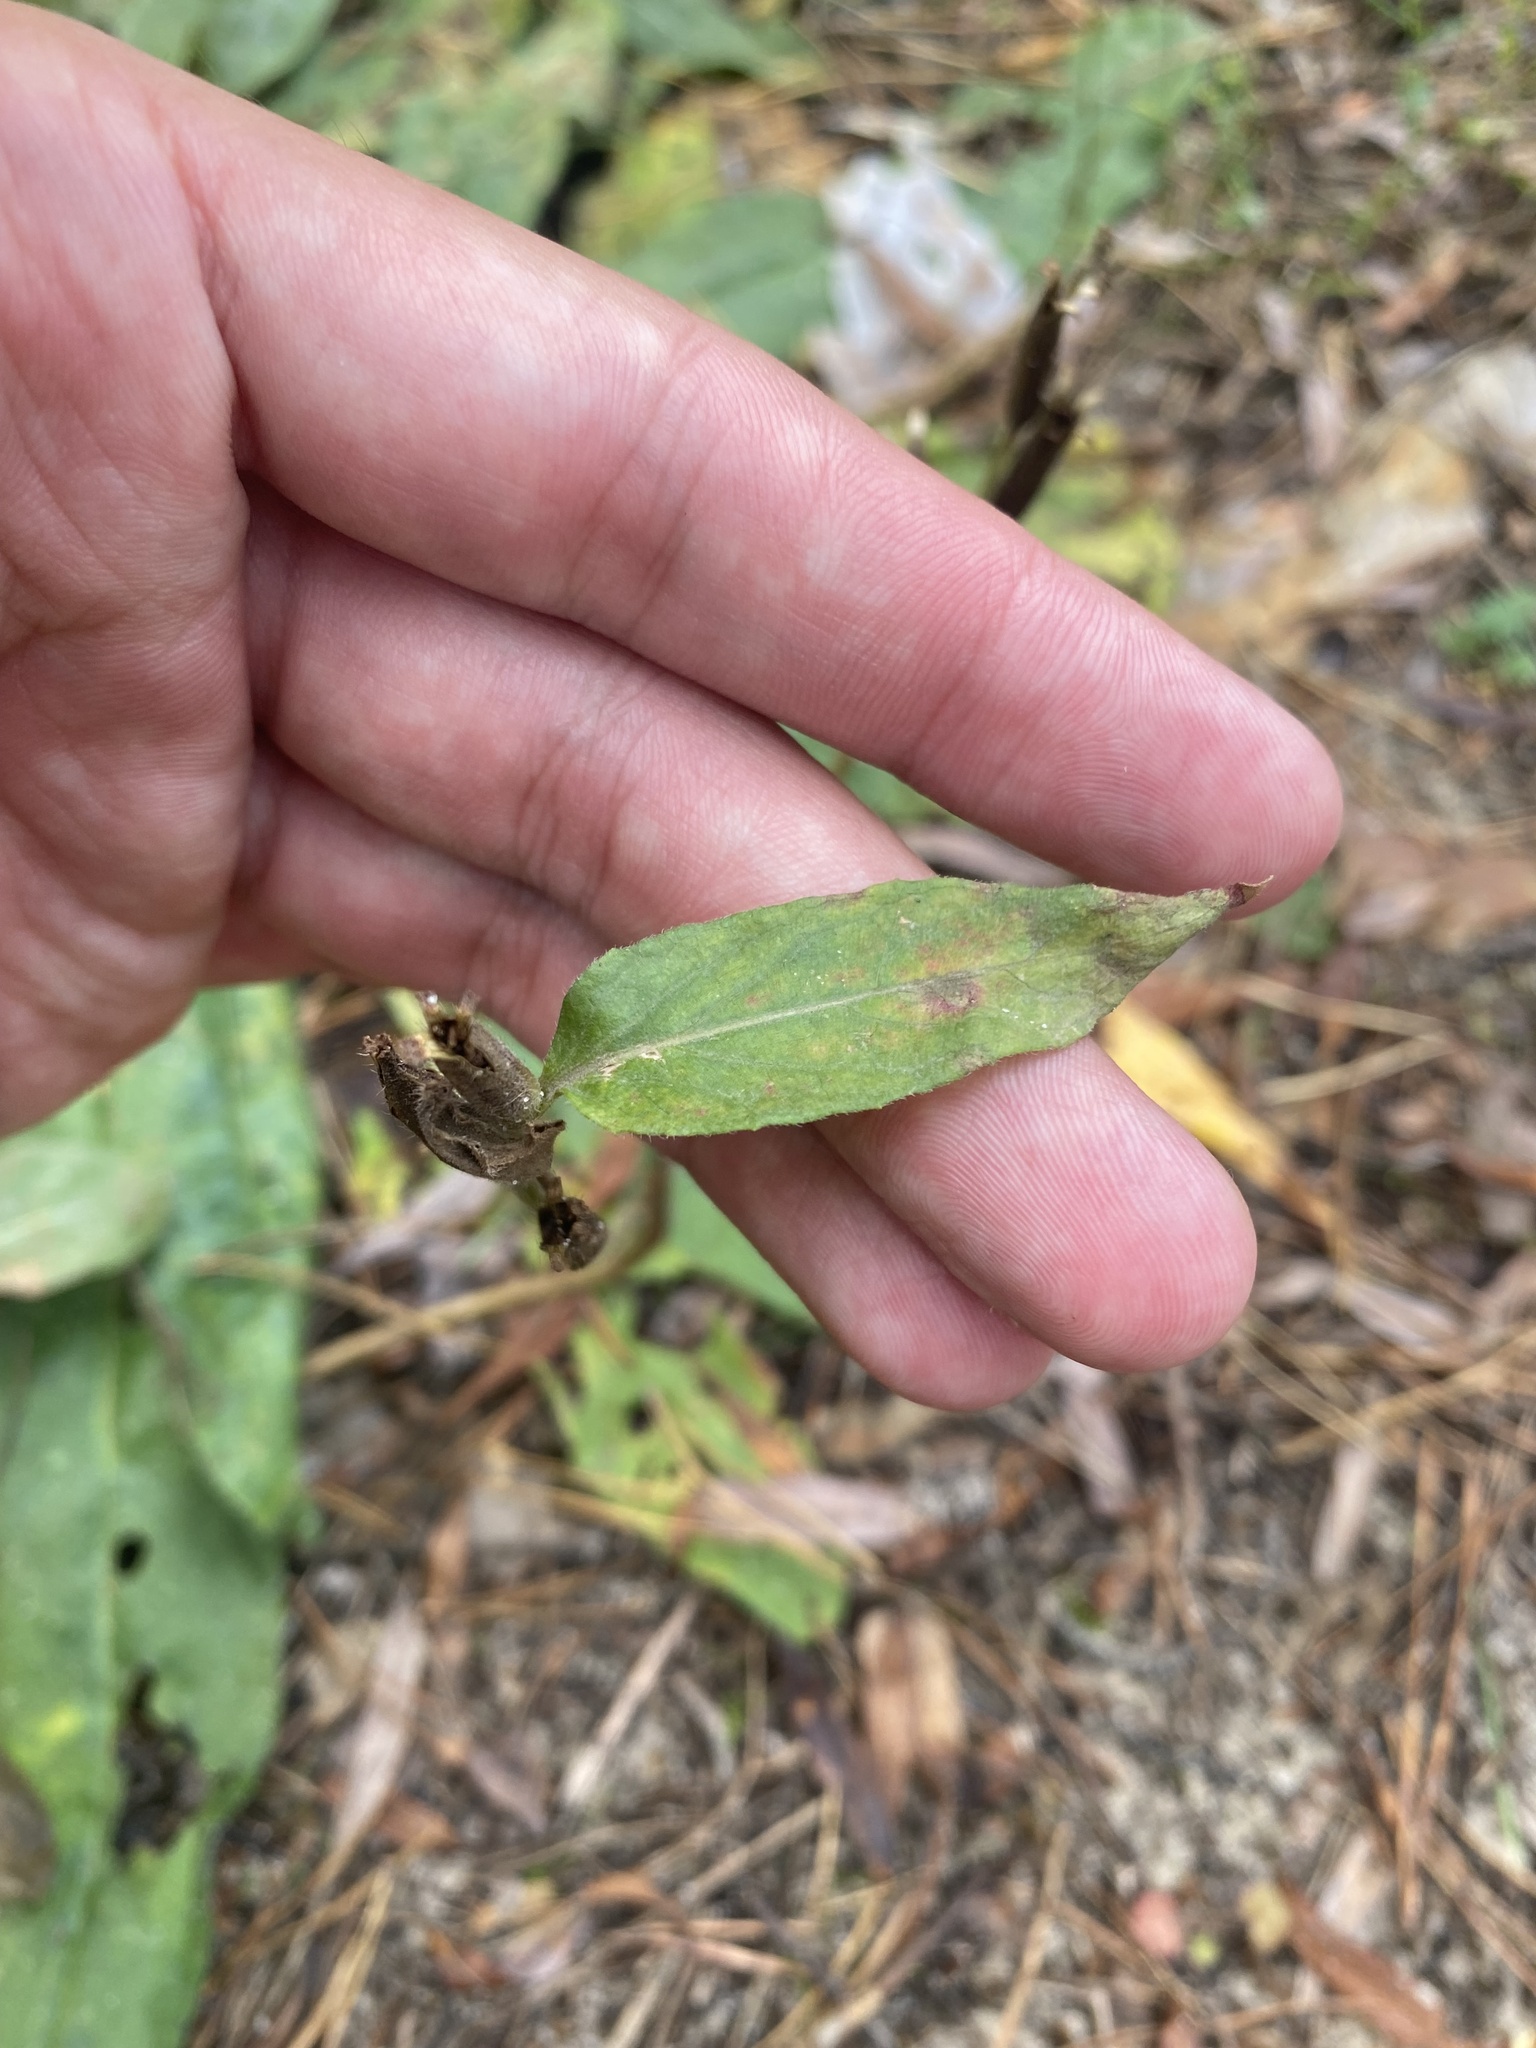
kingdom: Plantae
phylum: Tracheophyta
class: Magnoliopsida
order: Myrtales
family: Onagraceae
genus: Oenothera
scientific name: Oenothera
